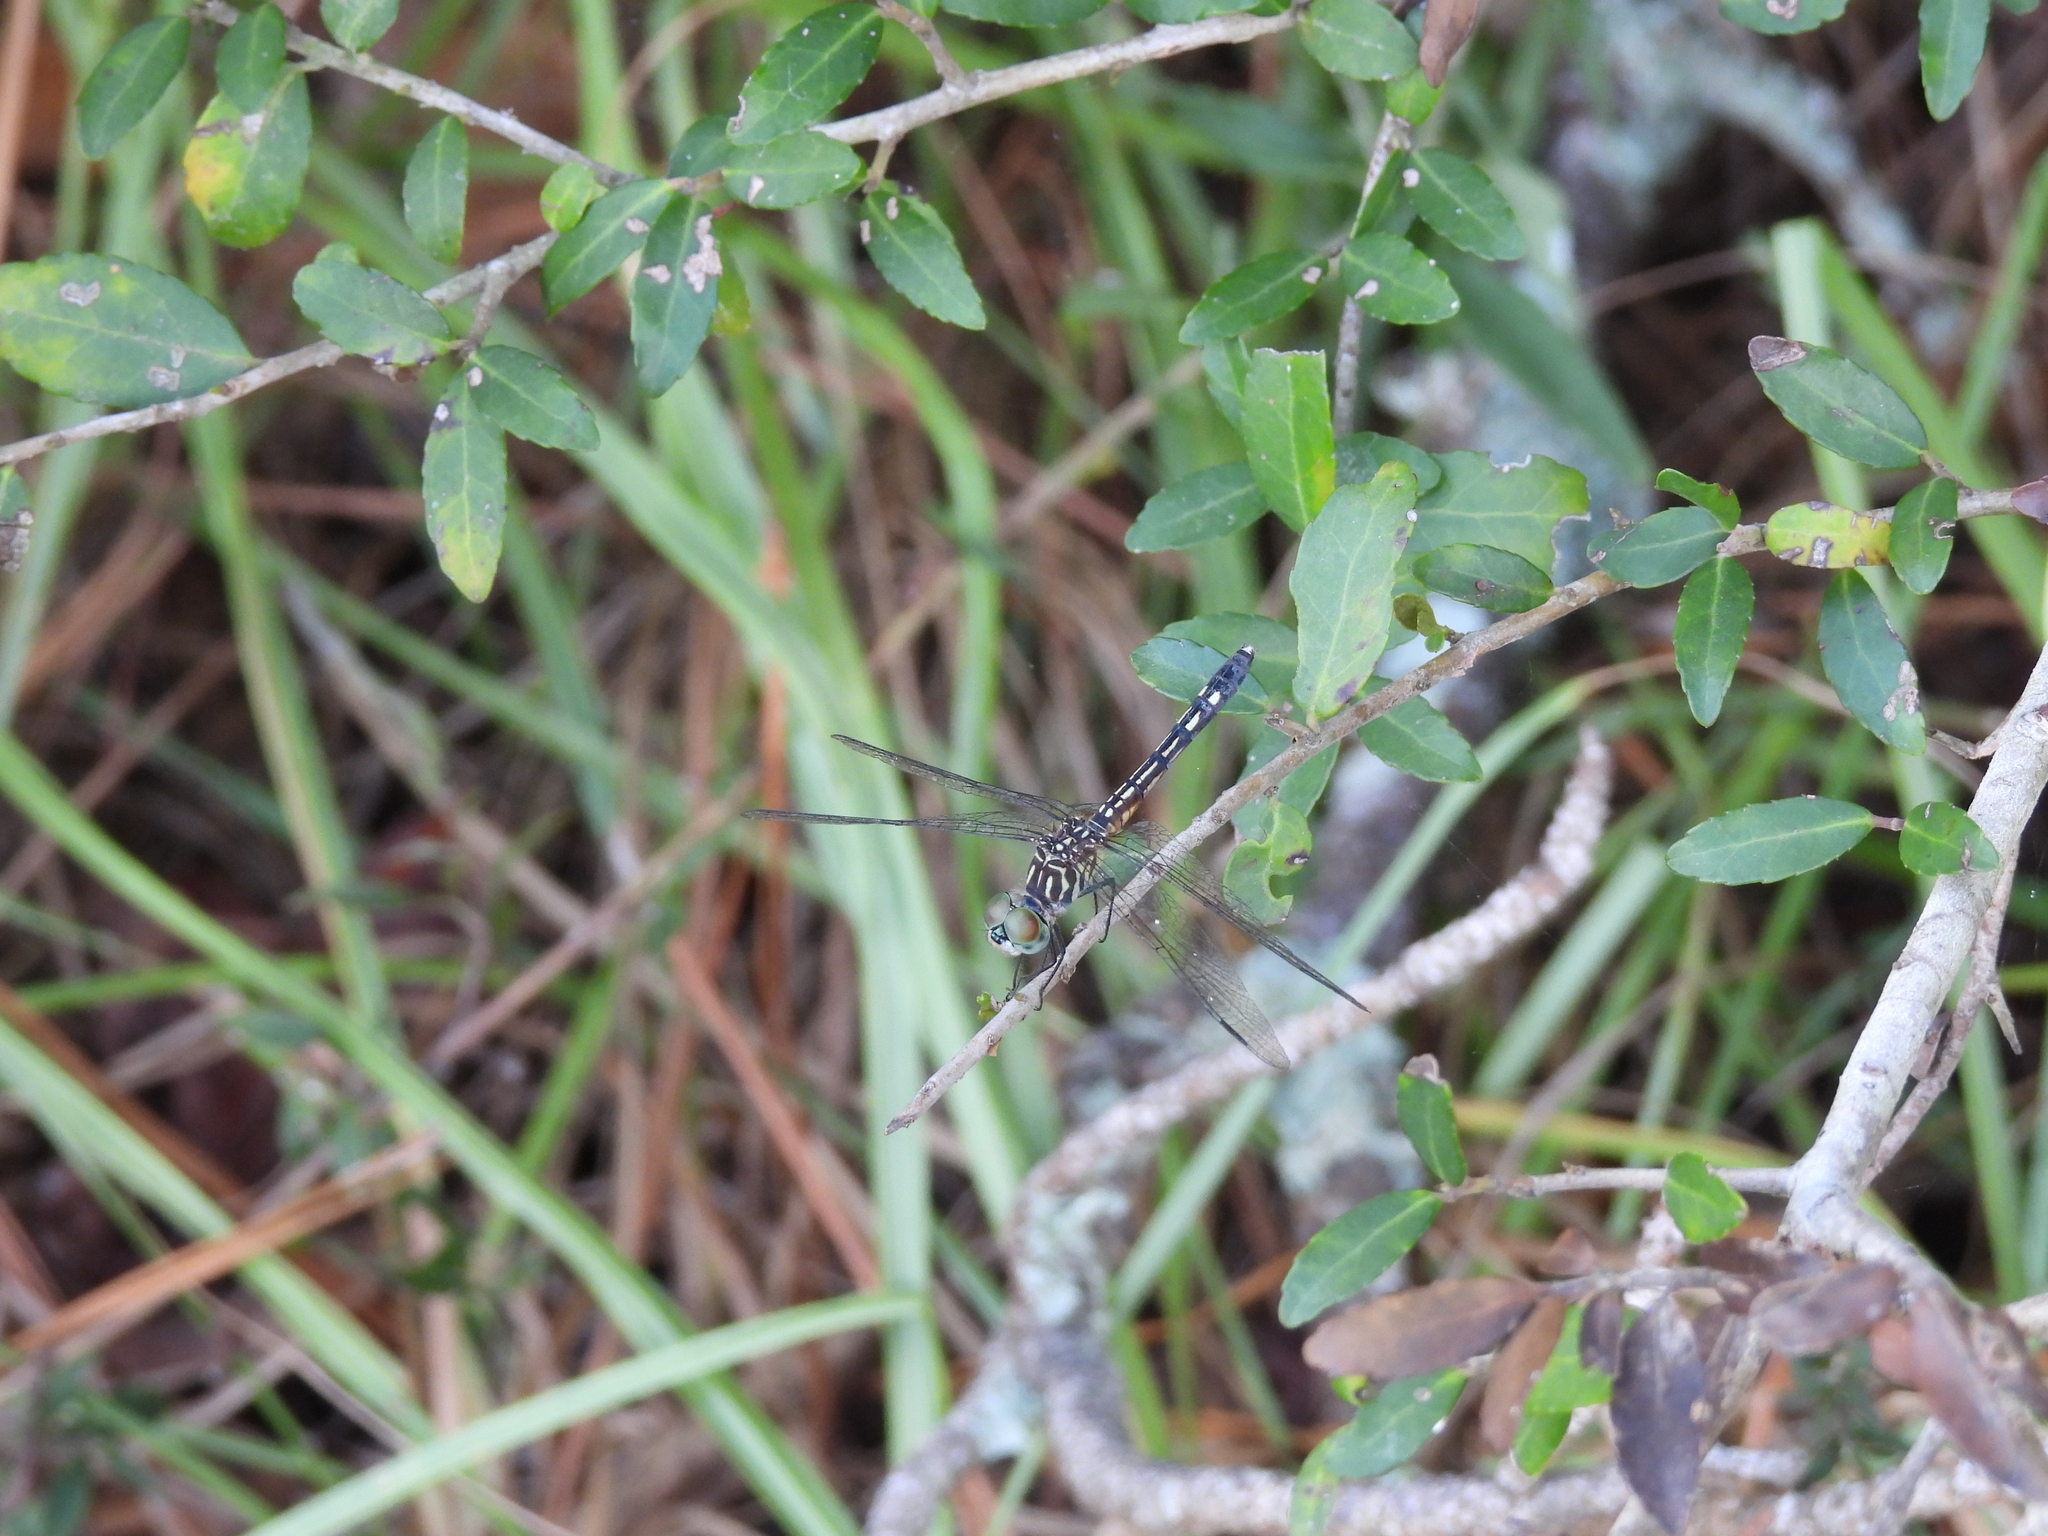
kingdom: Animalia
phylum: Arthropoda
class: Insecta
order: Odonata
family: Libellulidae
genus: Pachydiplax
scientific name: Pachydiplax longipennis
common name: Blue dasher
